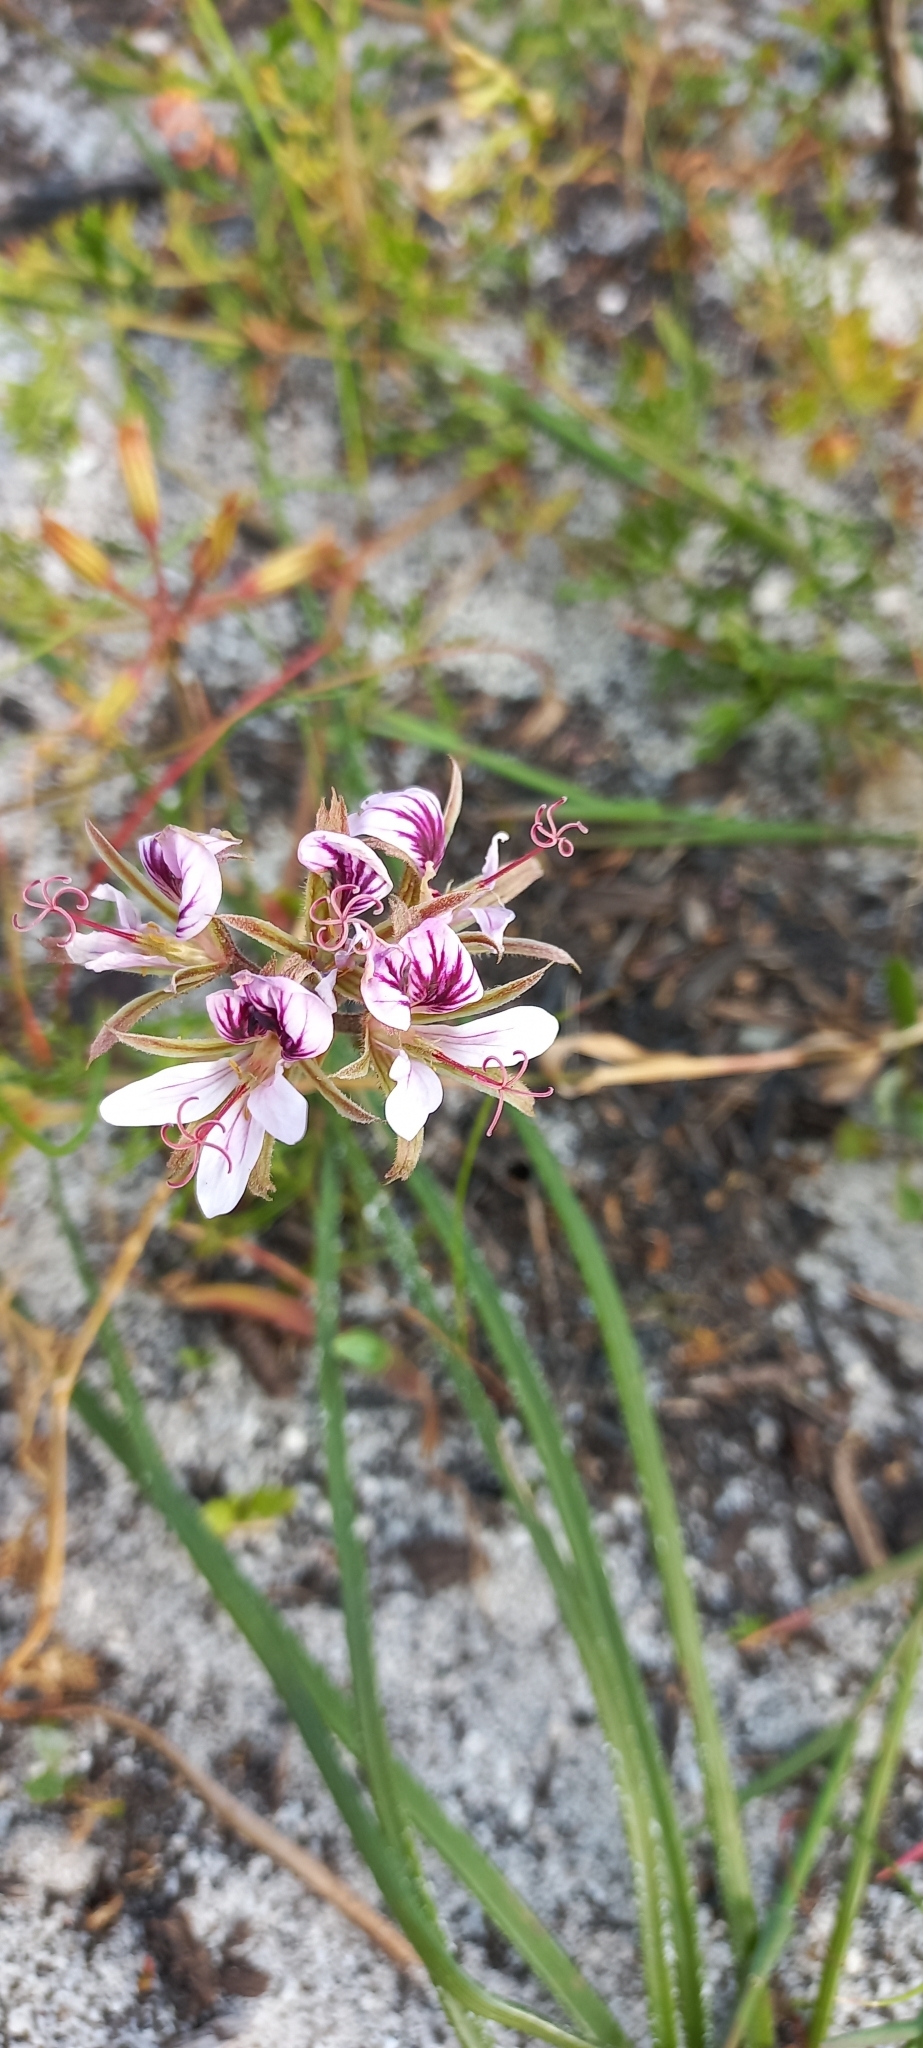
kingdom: Plantae
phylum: Tracheophyta
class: Magnoliopsida
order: Geraniales
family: Geraniaceae
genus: Pelargonium
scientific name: Pelargonium myrrhifolium
